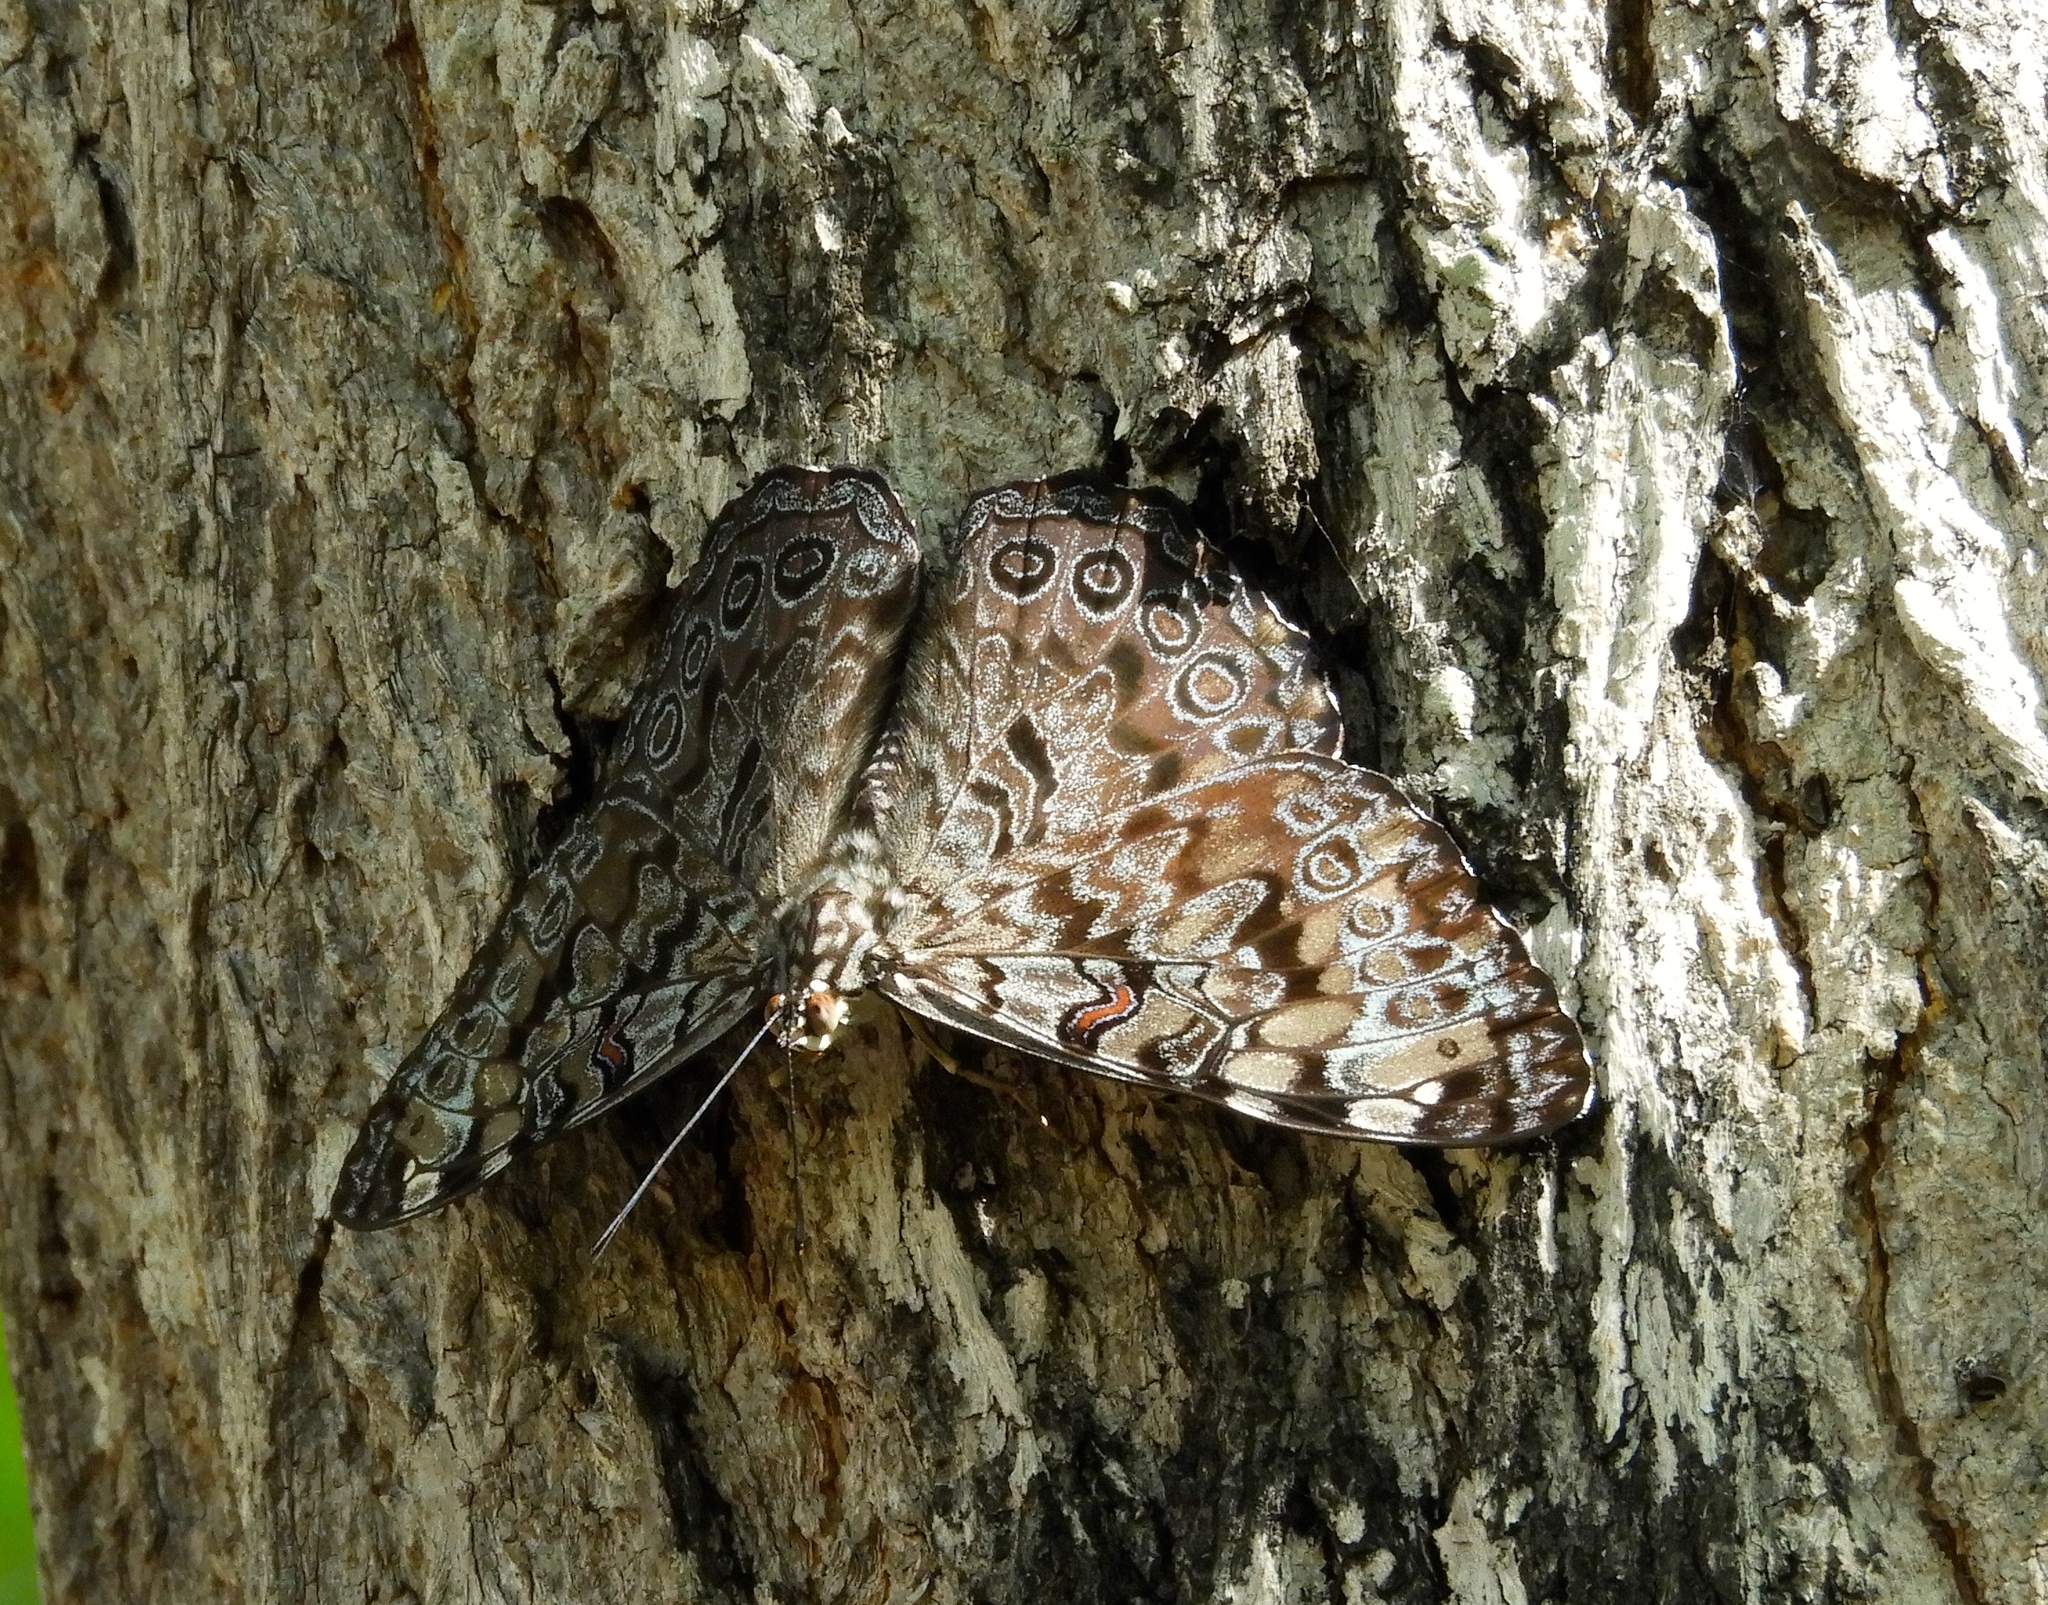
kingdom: Animalia
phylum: Arthropoda
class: Insecta
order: Lepidoptera
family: Nymphalidae
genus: Hamadryas
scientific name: Hamadryas guatemalena
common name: Guatemalan cracker
